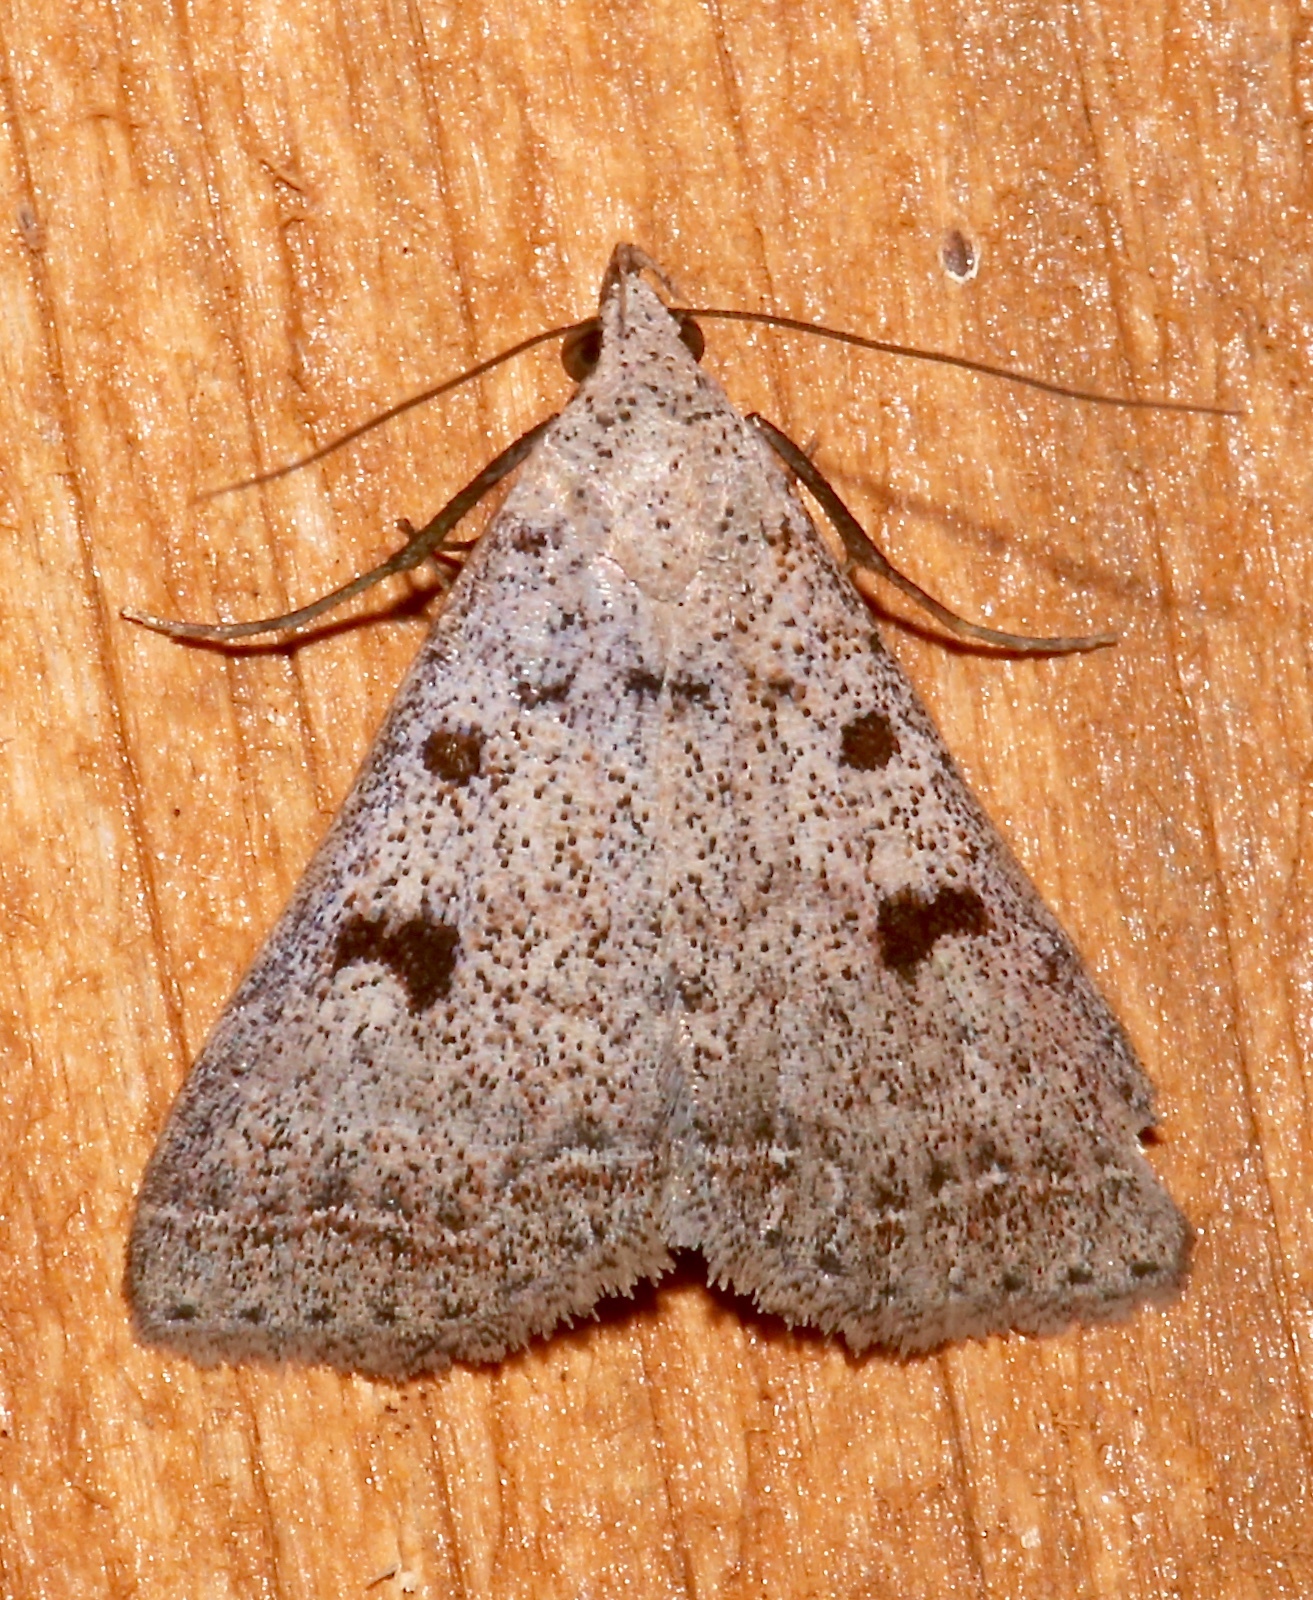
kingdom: Animalia
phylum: Arthropoda
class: Insecta
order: Lepidoptera
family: Erebidae
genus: Bleptina
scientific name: Bleptina caradrinalis
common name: Bent-winged owlet
